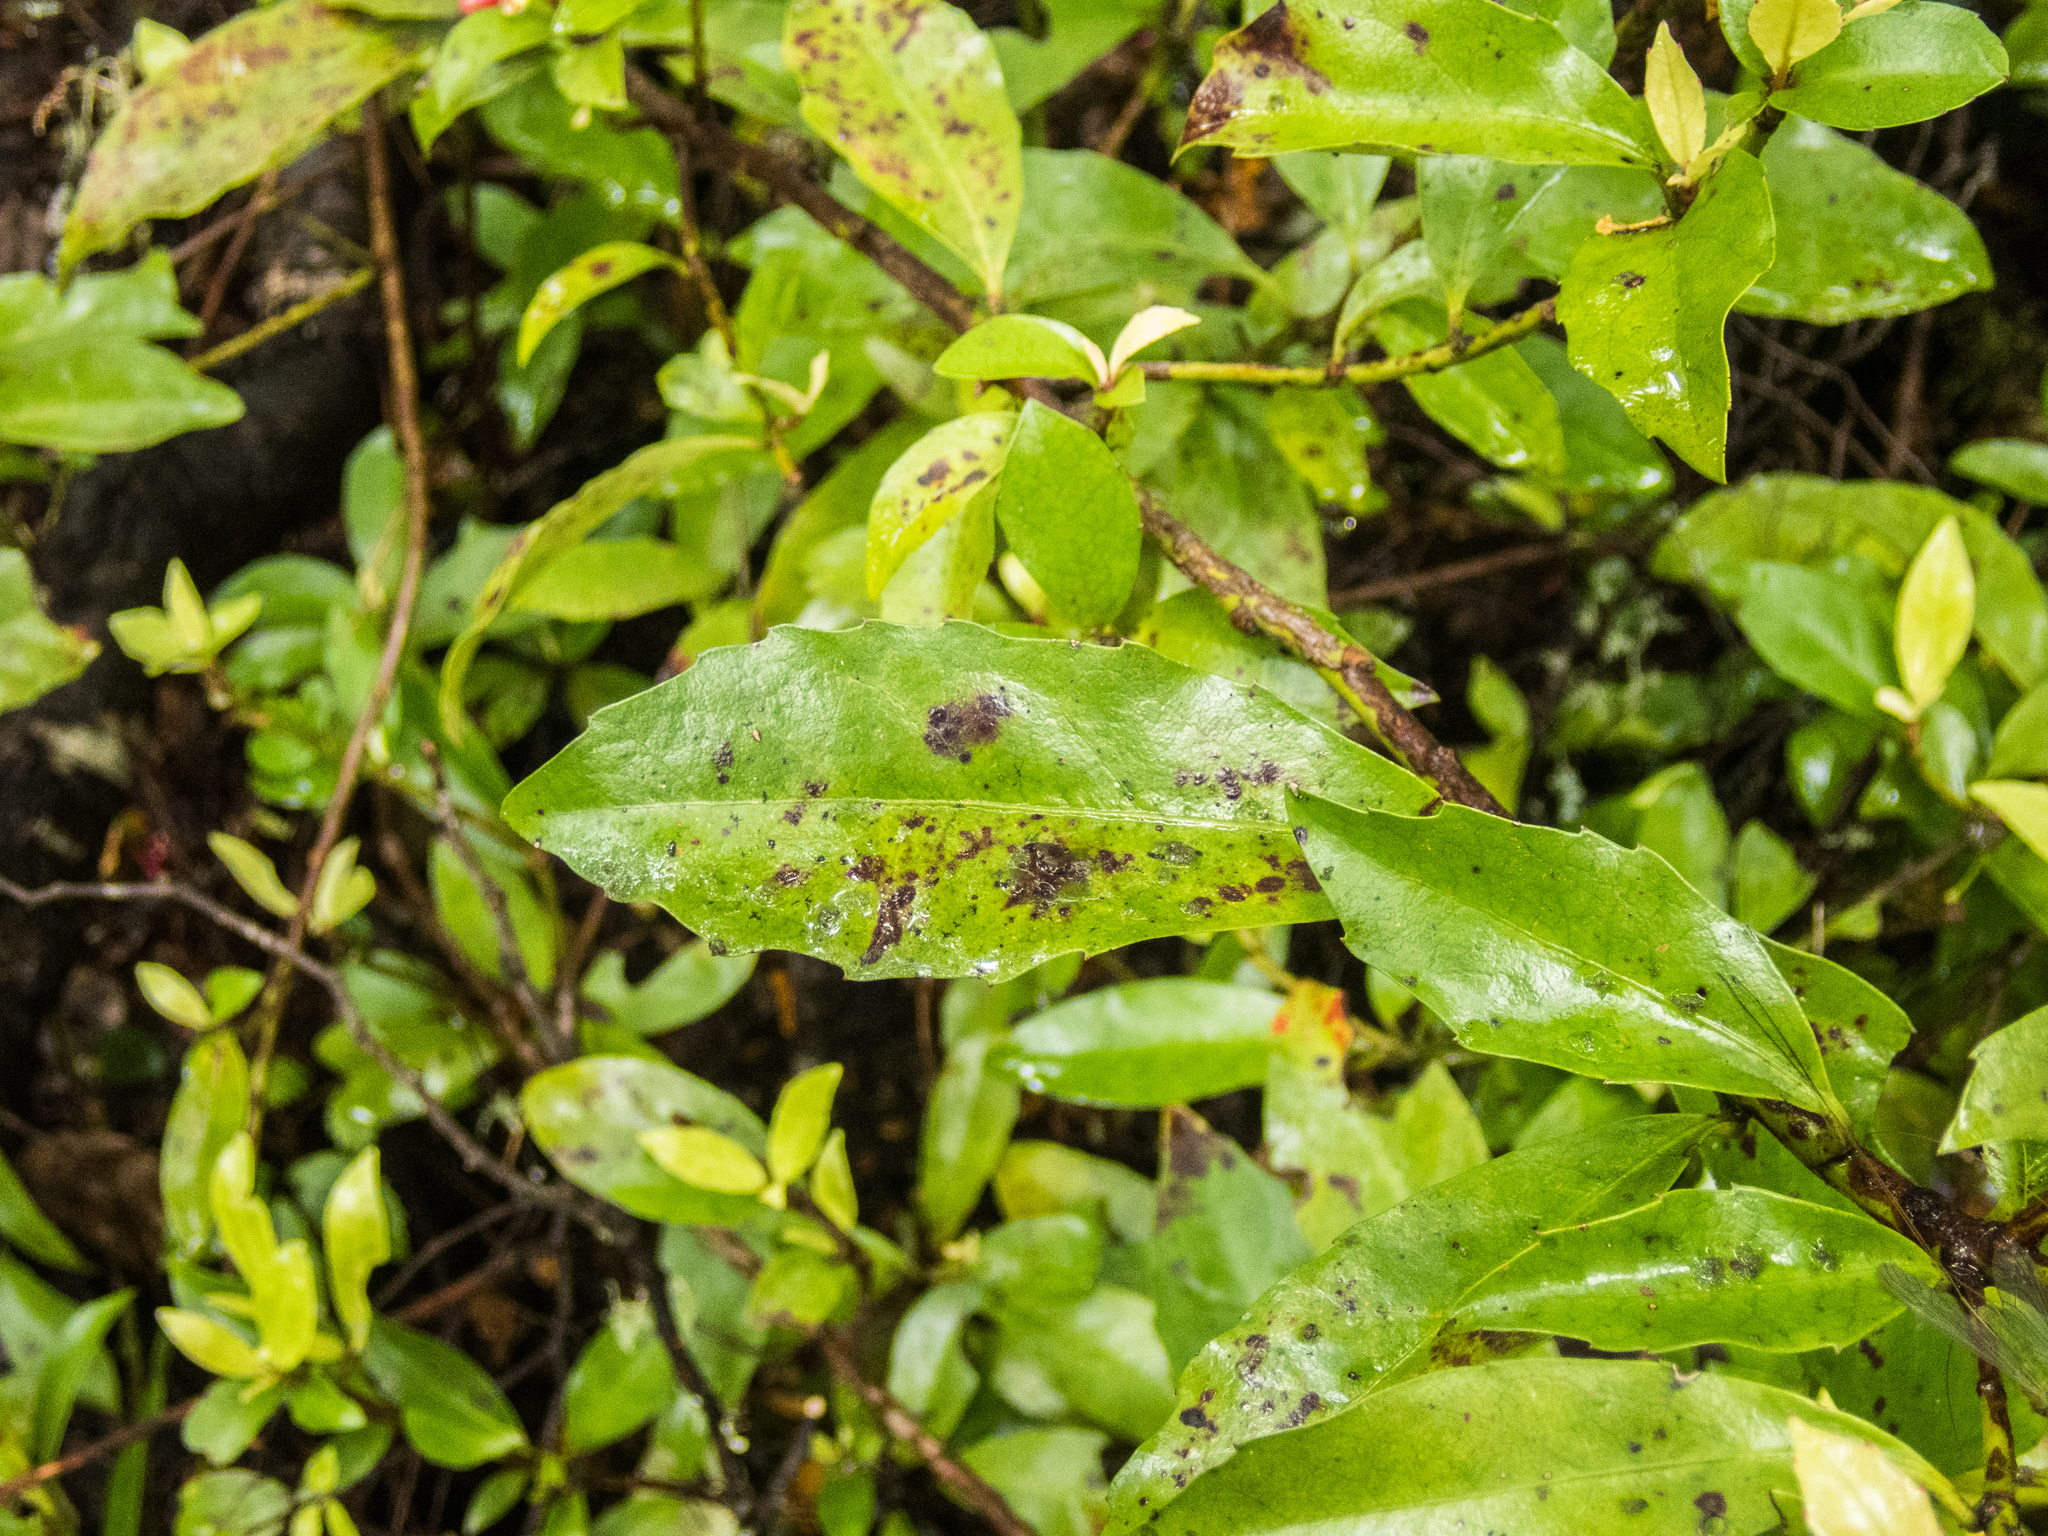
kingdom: Plantae
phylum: Tracheophyta
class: Magnoliopsida
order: Asterales
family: Alseuosmiaceae
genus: Alseuosmia
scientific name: Alseuosmia turneri
